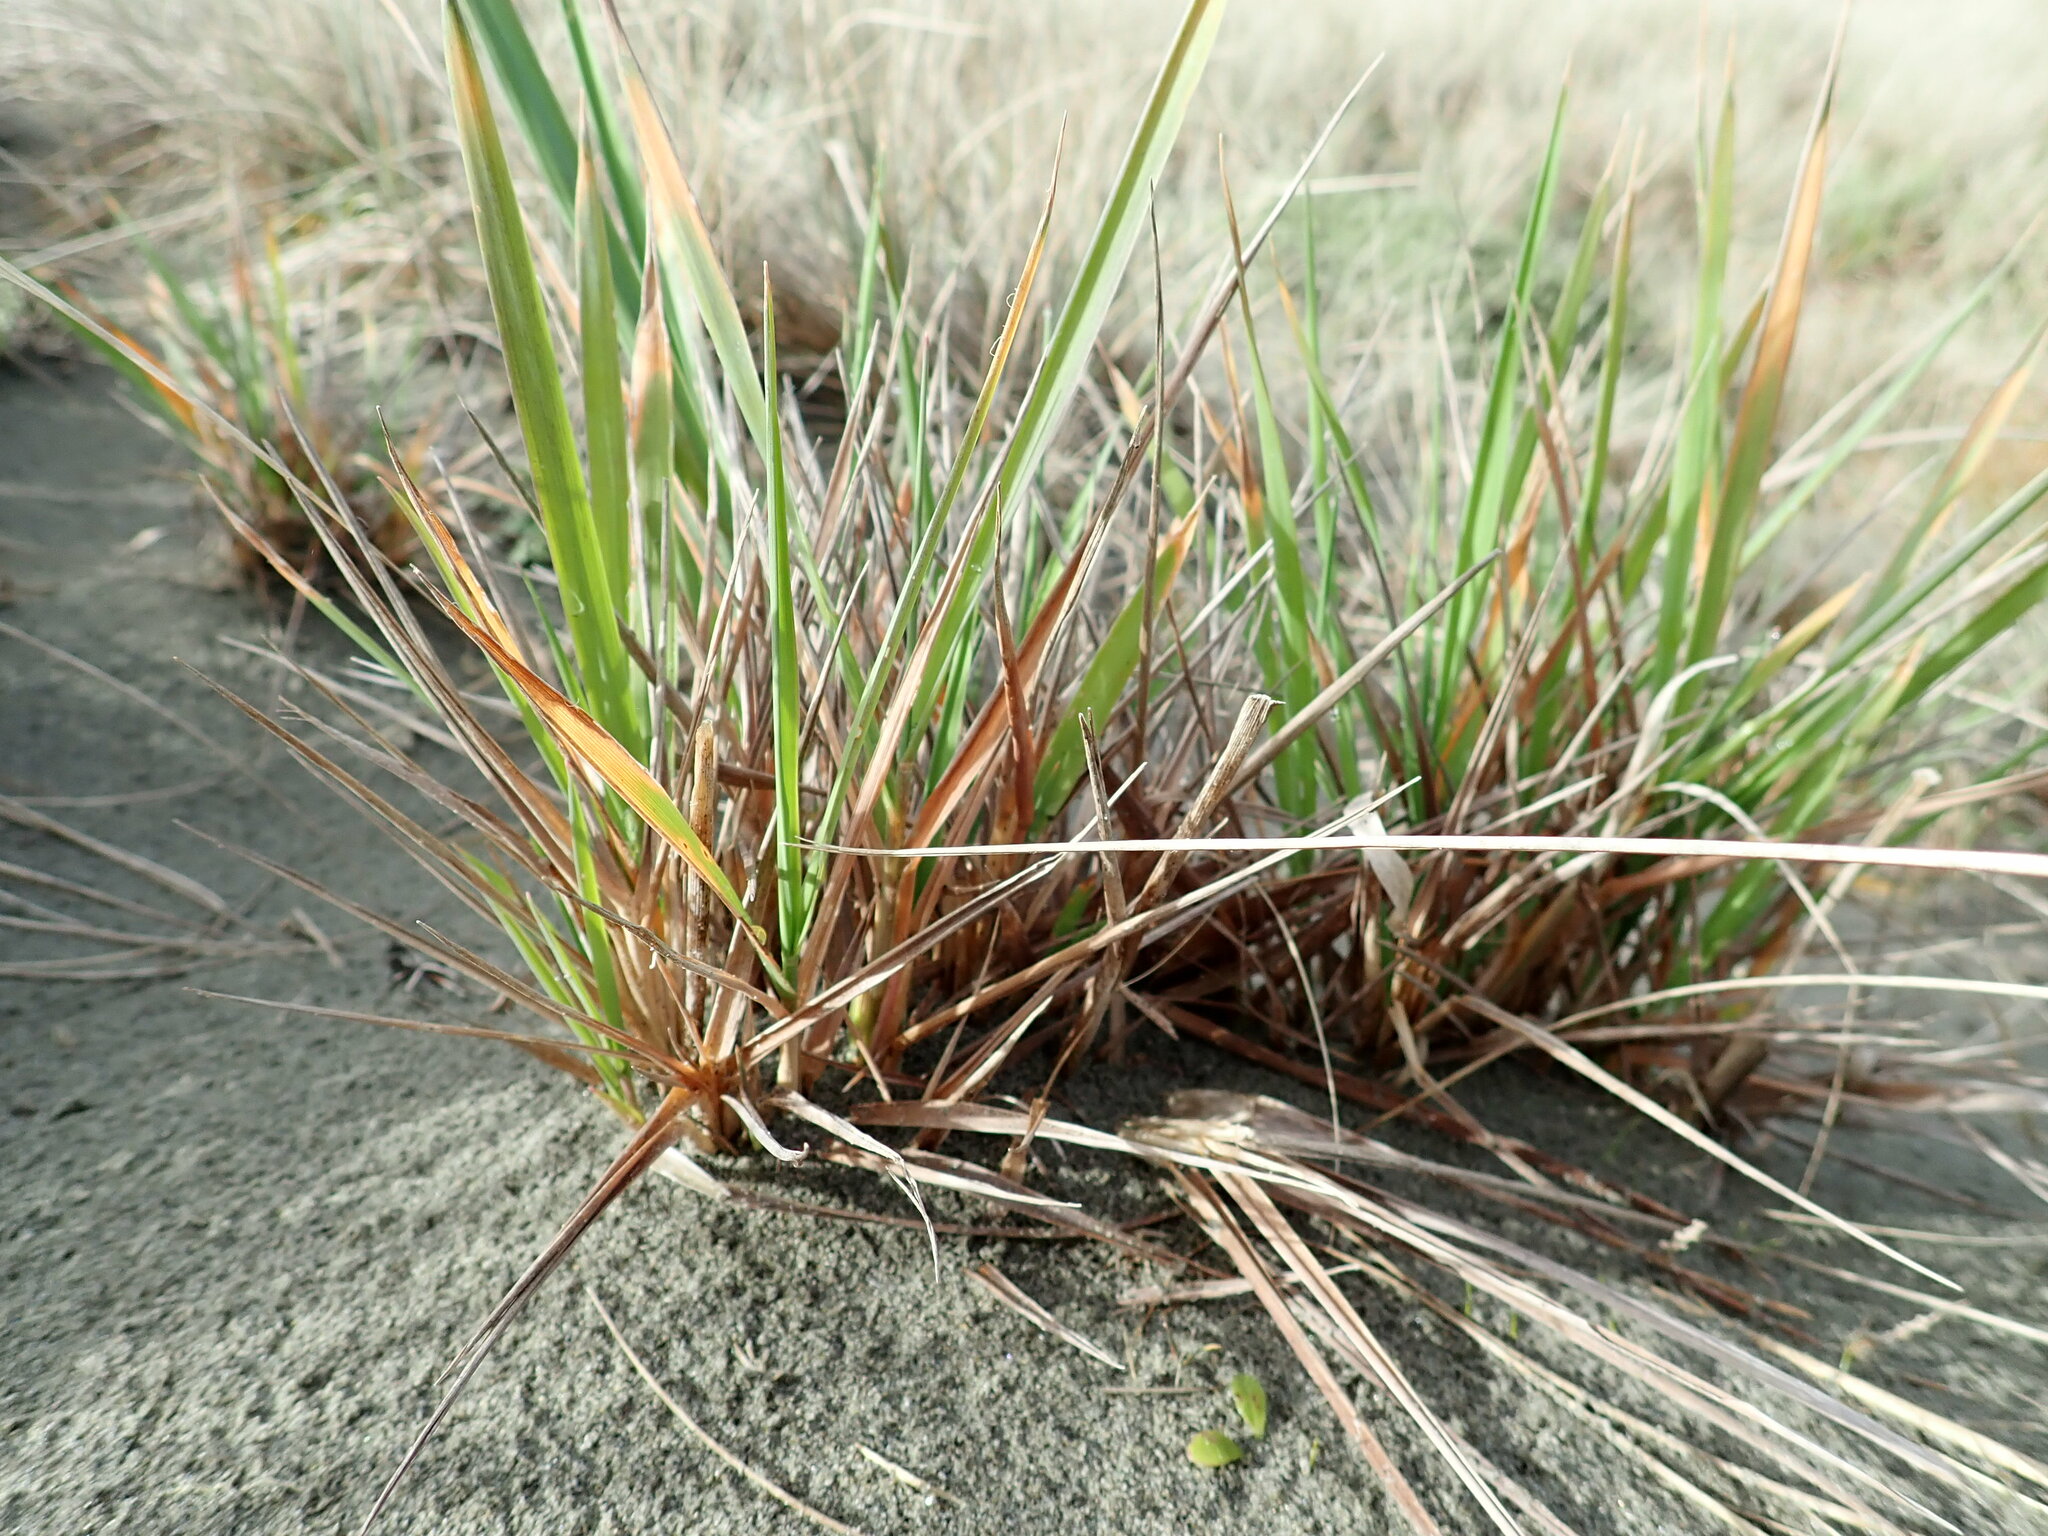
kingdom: Plantae
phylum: Tracheophyta
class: Liliopsida
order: Poales
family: Poaceae
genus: Lachnagrostis
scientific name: Lachnagrostis billardierei
